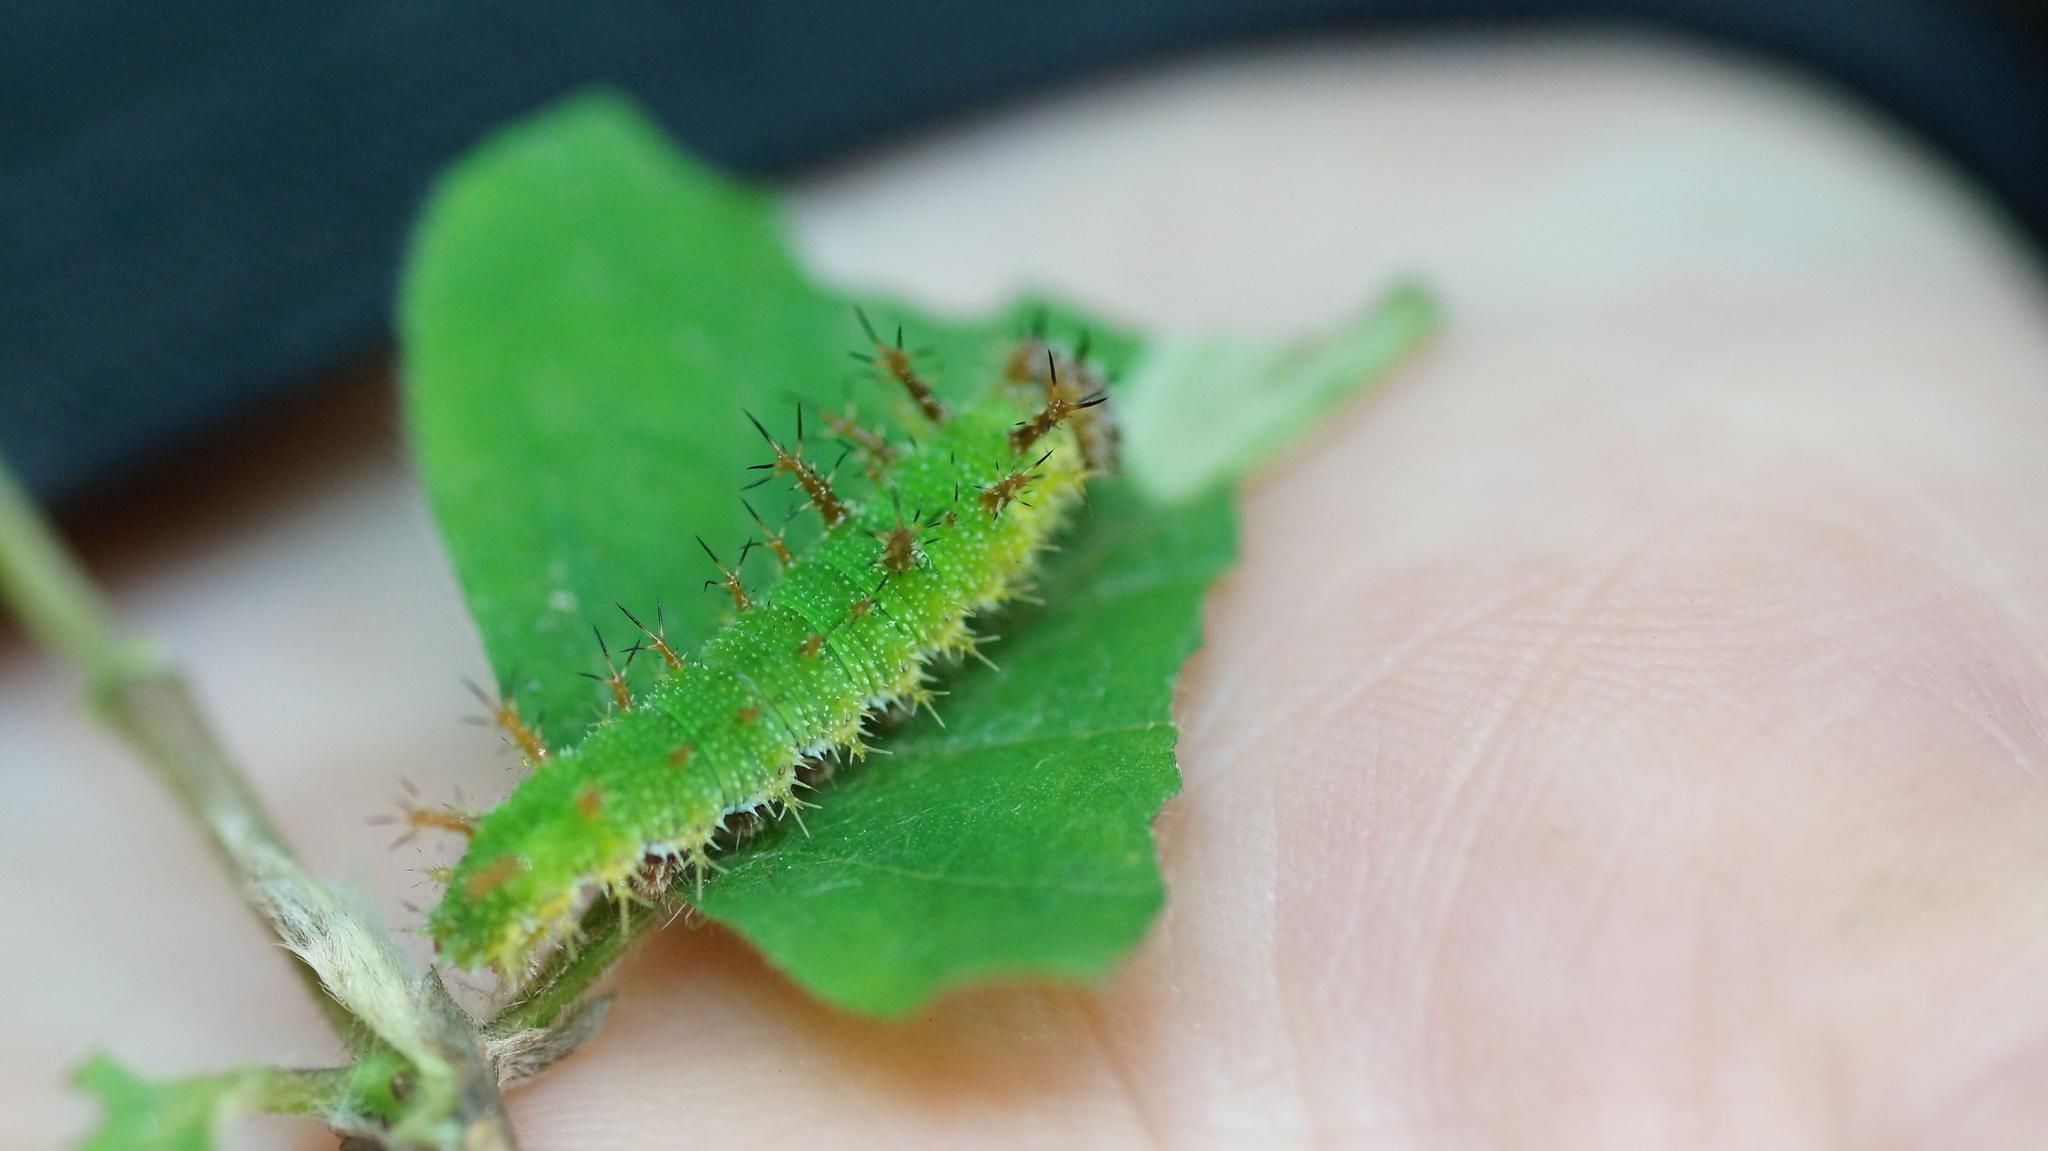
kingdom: Animalia
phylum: Arthropoda
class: Insecta
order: Lepidoptera
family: Nymphalidae
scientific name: Nymphalidae
